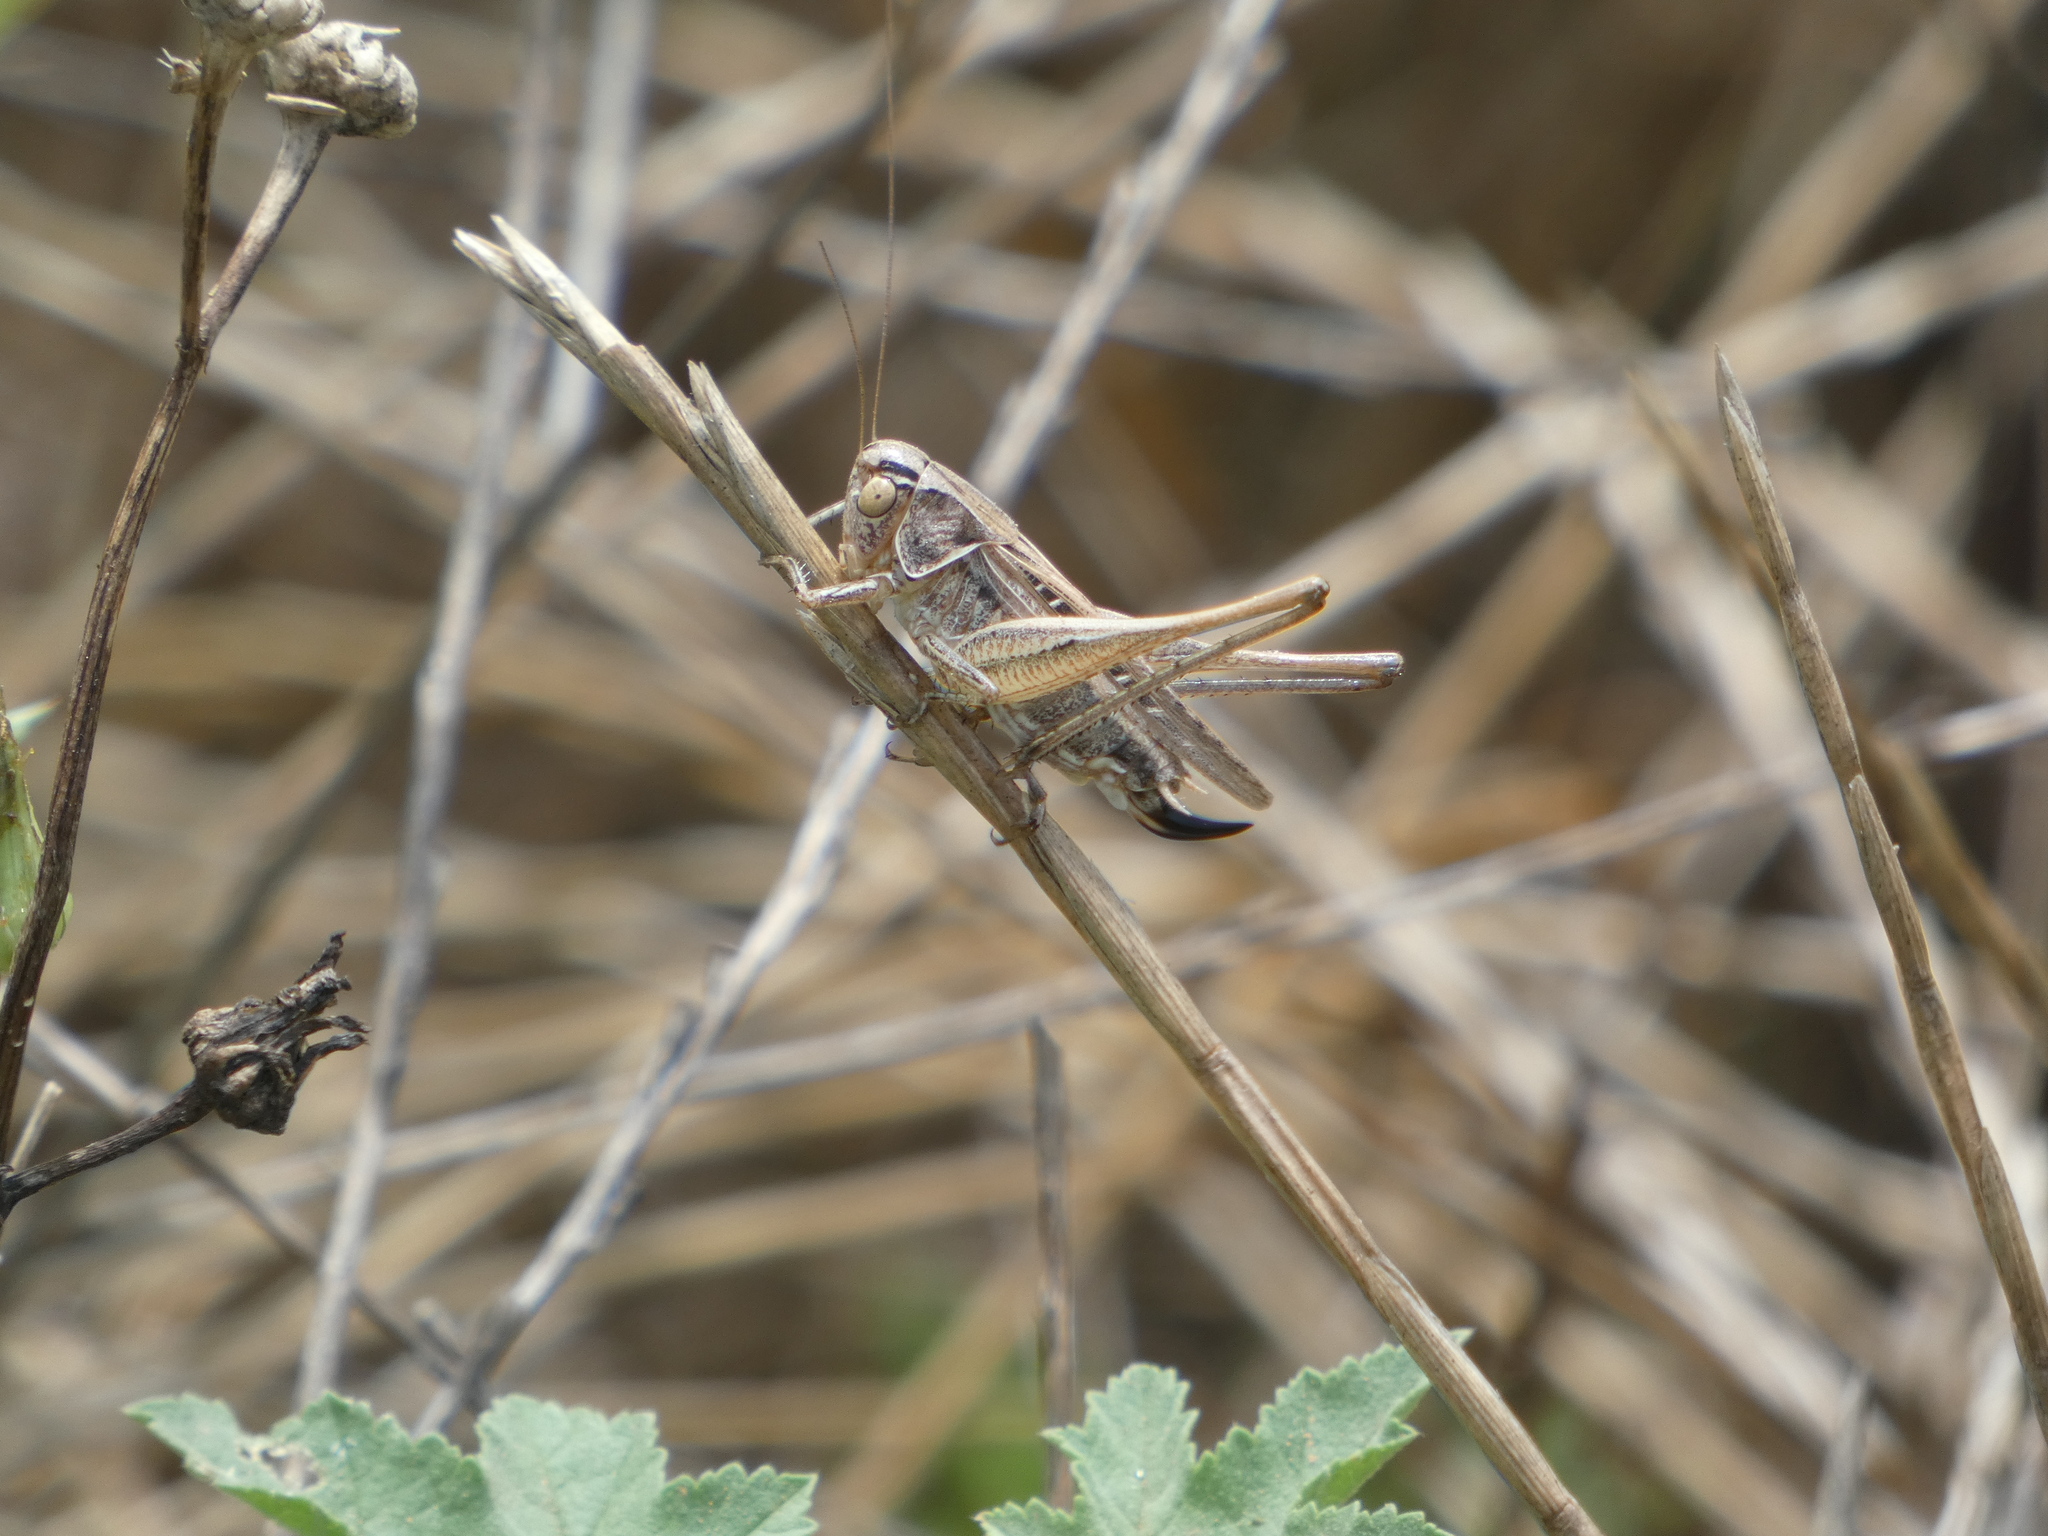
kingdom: Animalia
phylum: Arthropoda
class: Insecta
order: Orthoptera
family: Tettigoniidae
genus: Tessellana
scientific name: Tessellana tessellata
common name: Grasshopper
